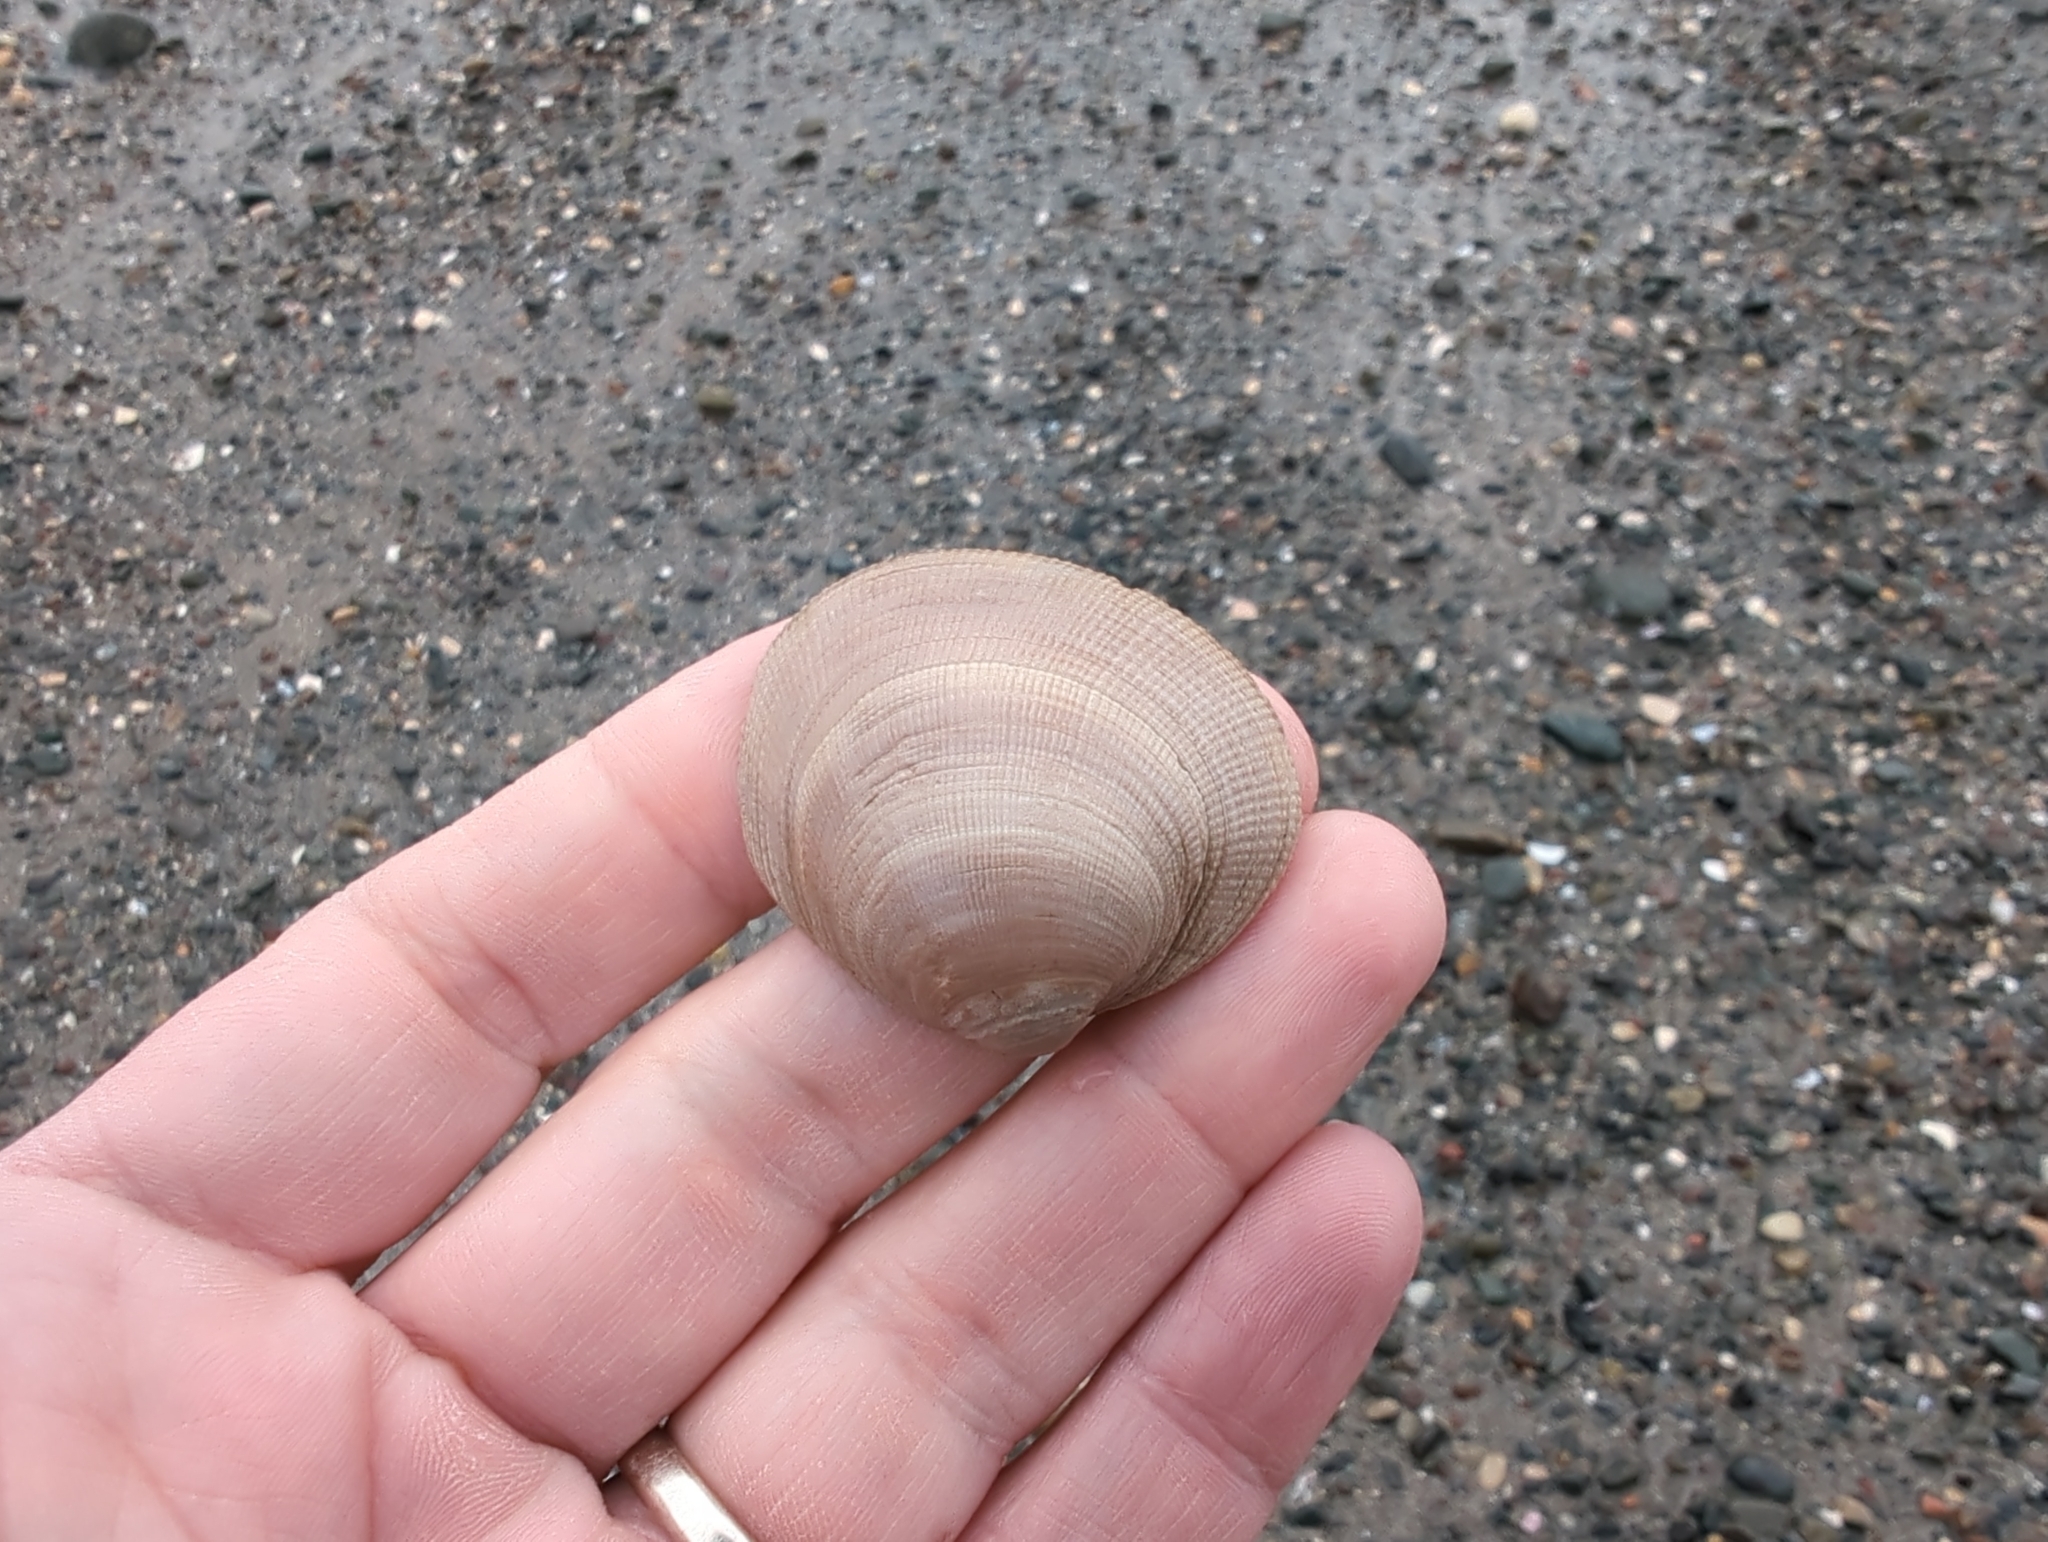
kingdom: Animalia
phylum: Mollusca
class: Bivalvia
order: Venerida
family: Veneridae
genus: Leukoma
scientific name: Leukoma staminea
